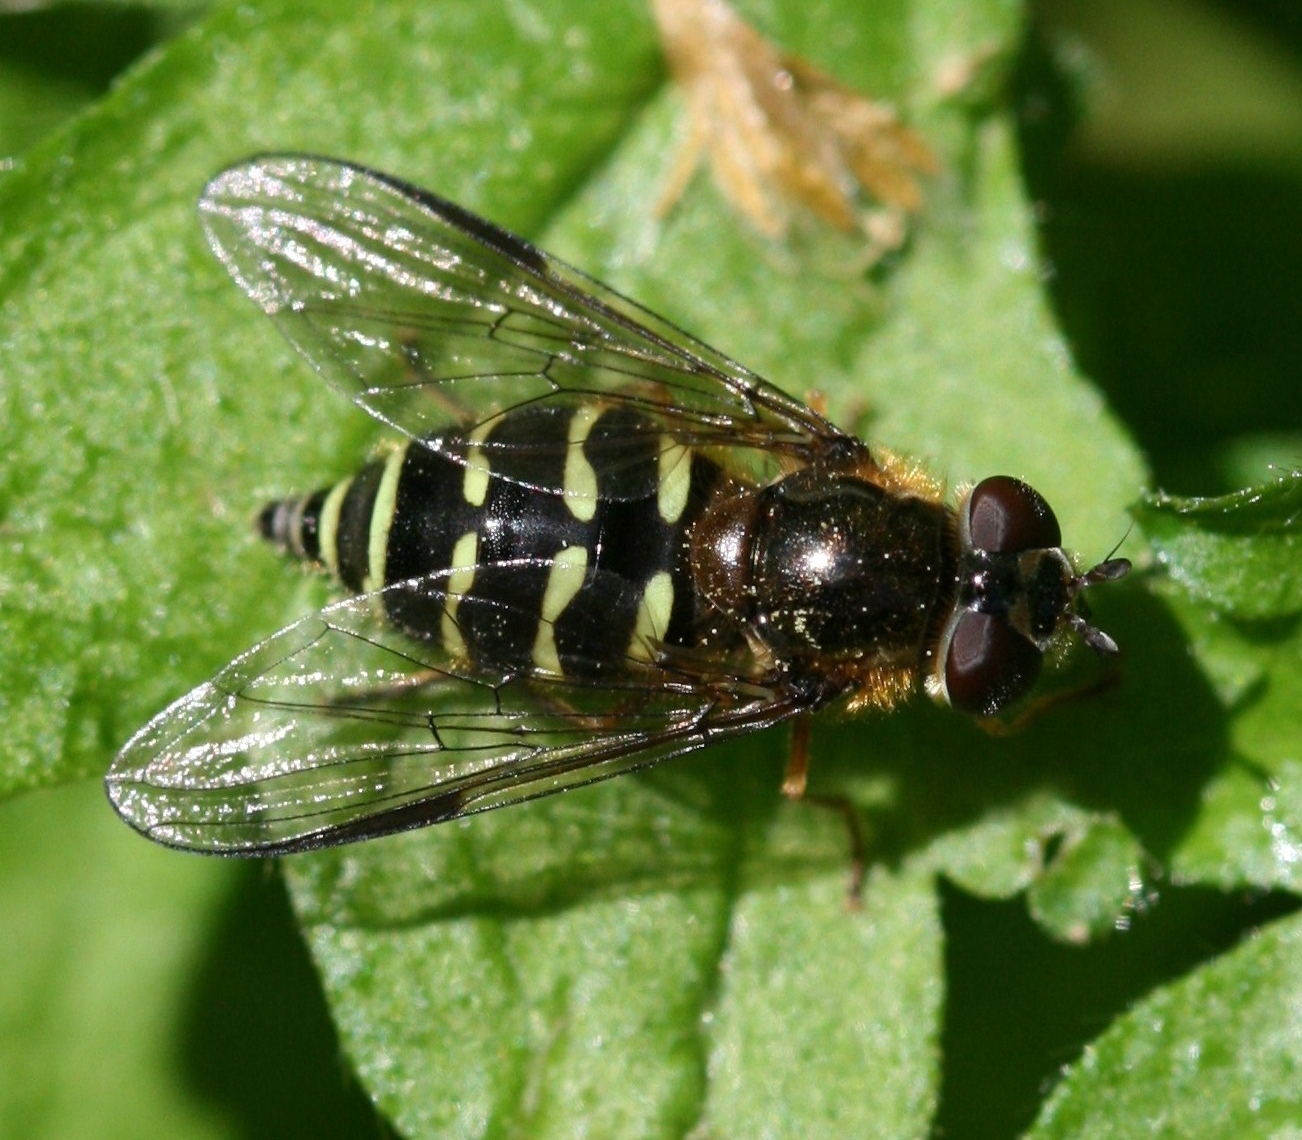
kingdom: Animalia
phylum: Arthropoda
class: Insecta
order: Diptera
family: Syrphidae
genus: Dasysyrphus
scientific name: Dasysyrphus
